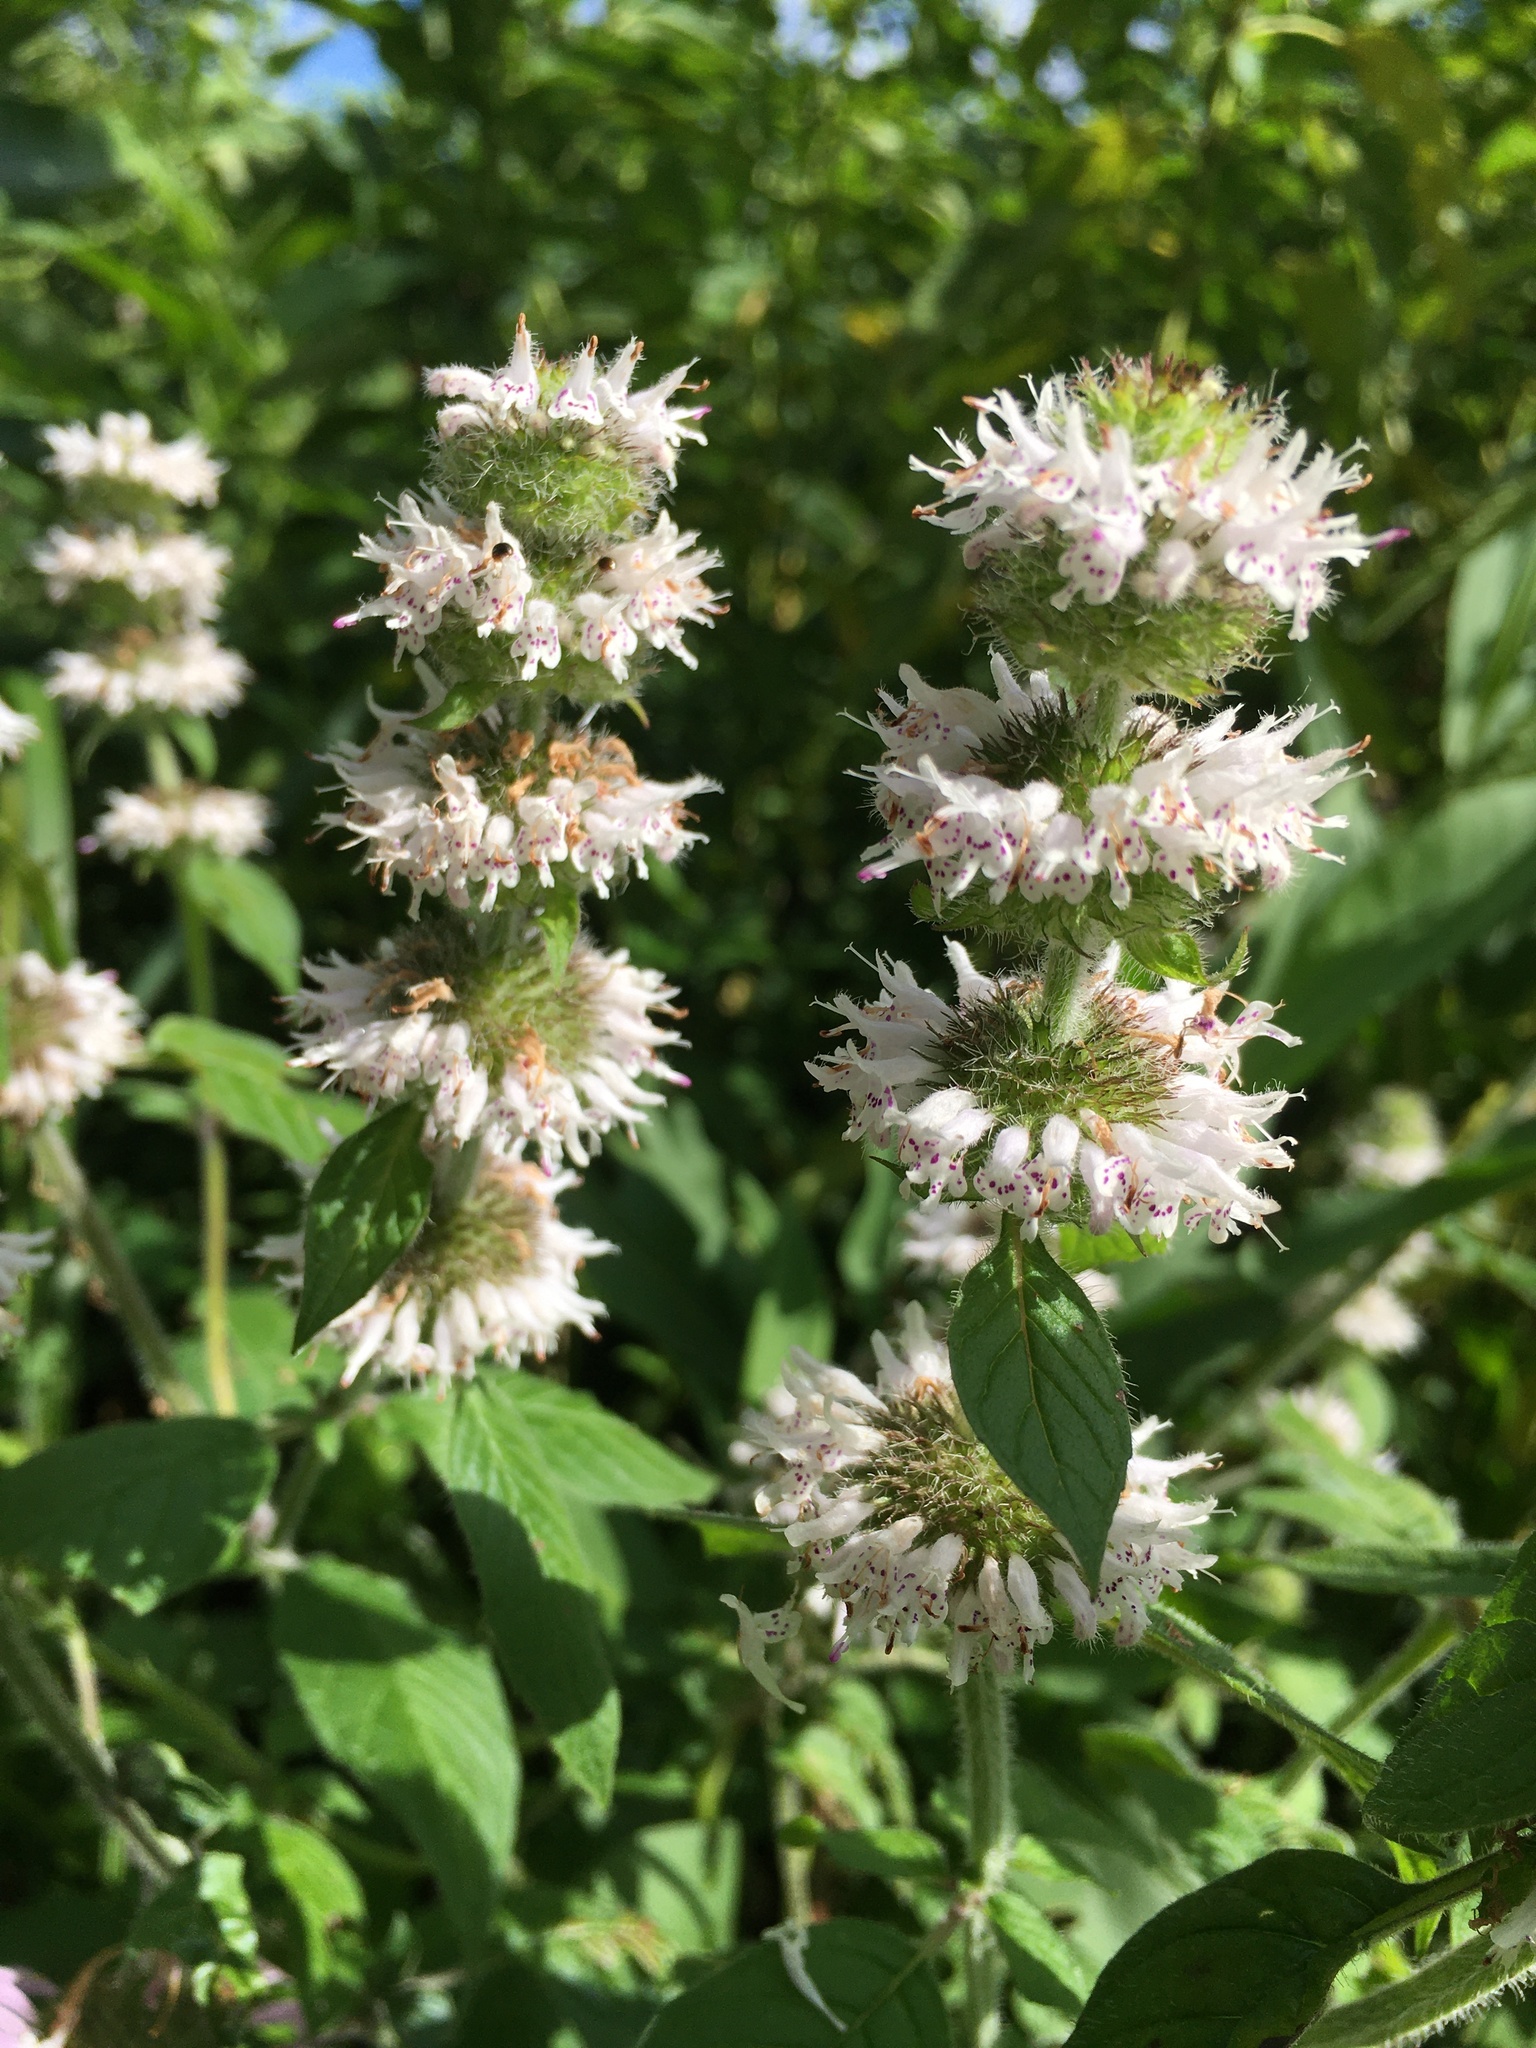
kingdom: Plantae
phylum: Tracheophyta
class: Magnoliopsida
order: Lamiales
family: Lamiaceae
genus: Blephilia
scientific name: Blephilia hirsuta
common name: Hairy blephilia
